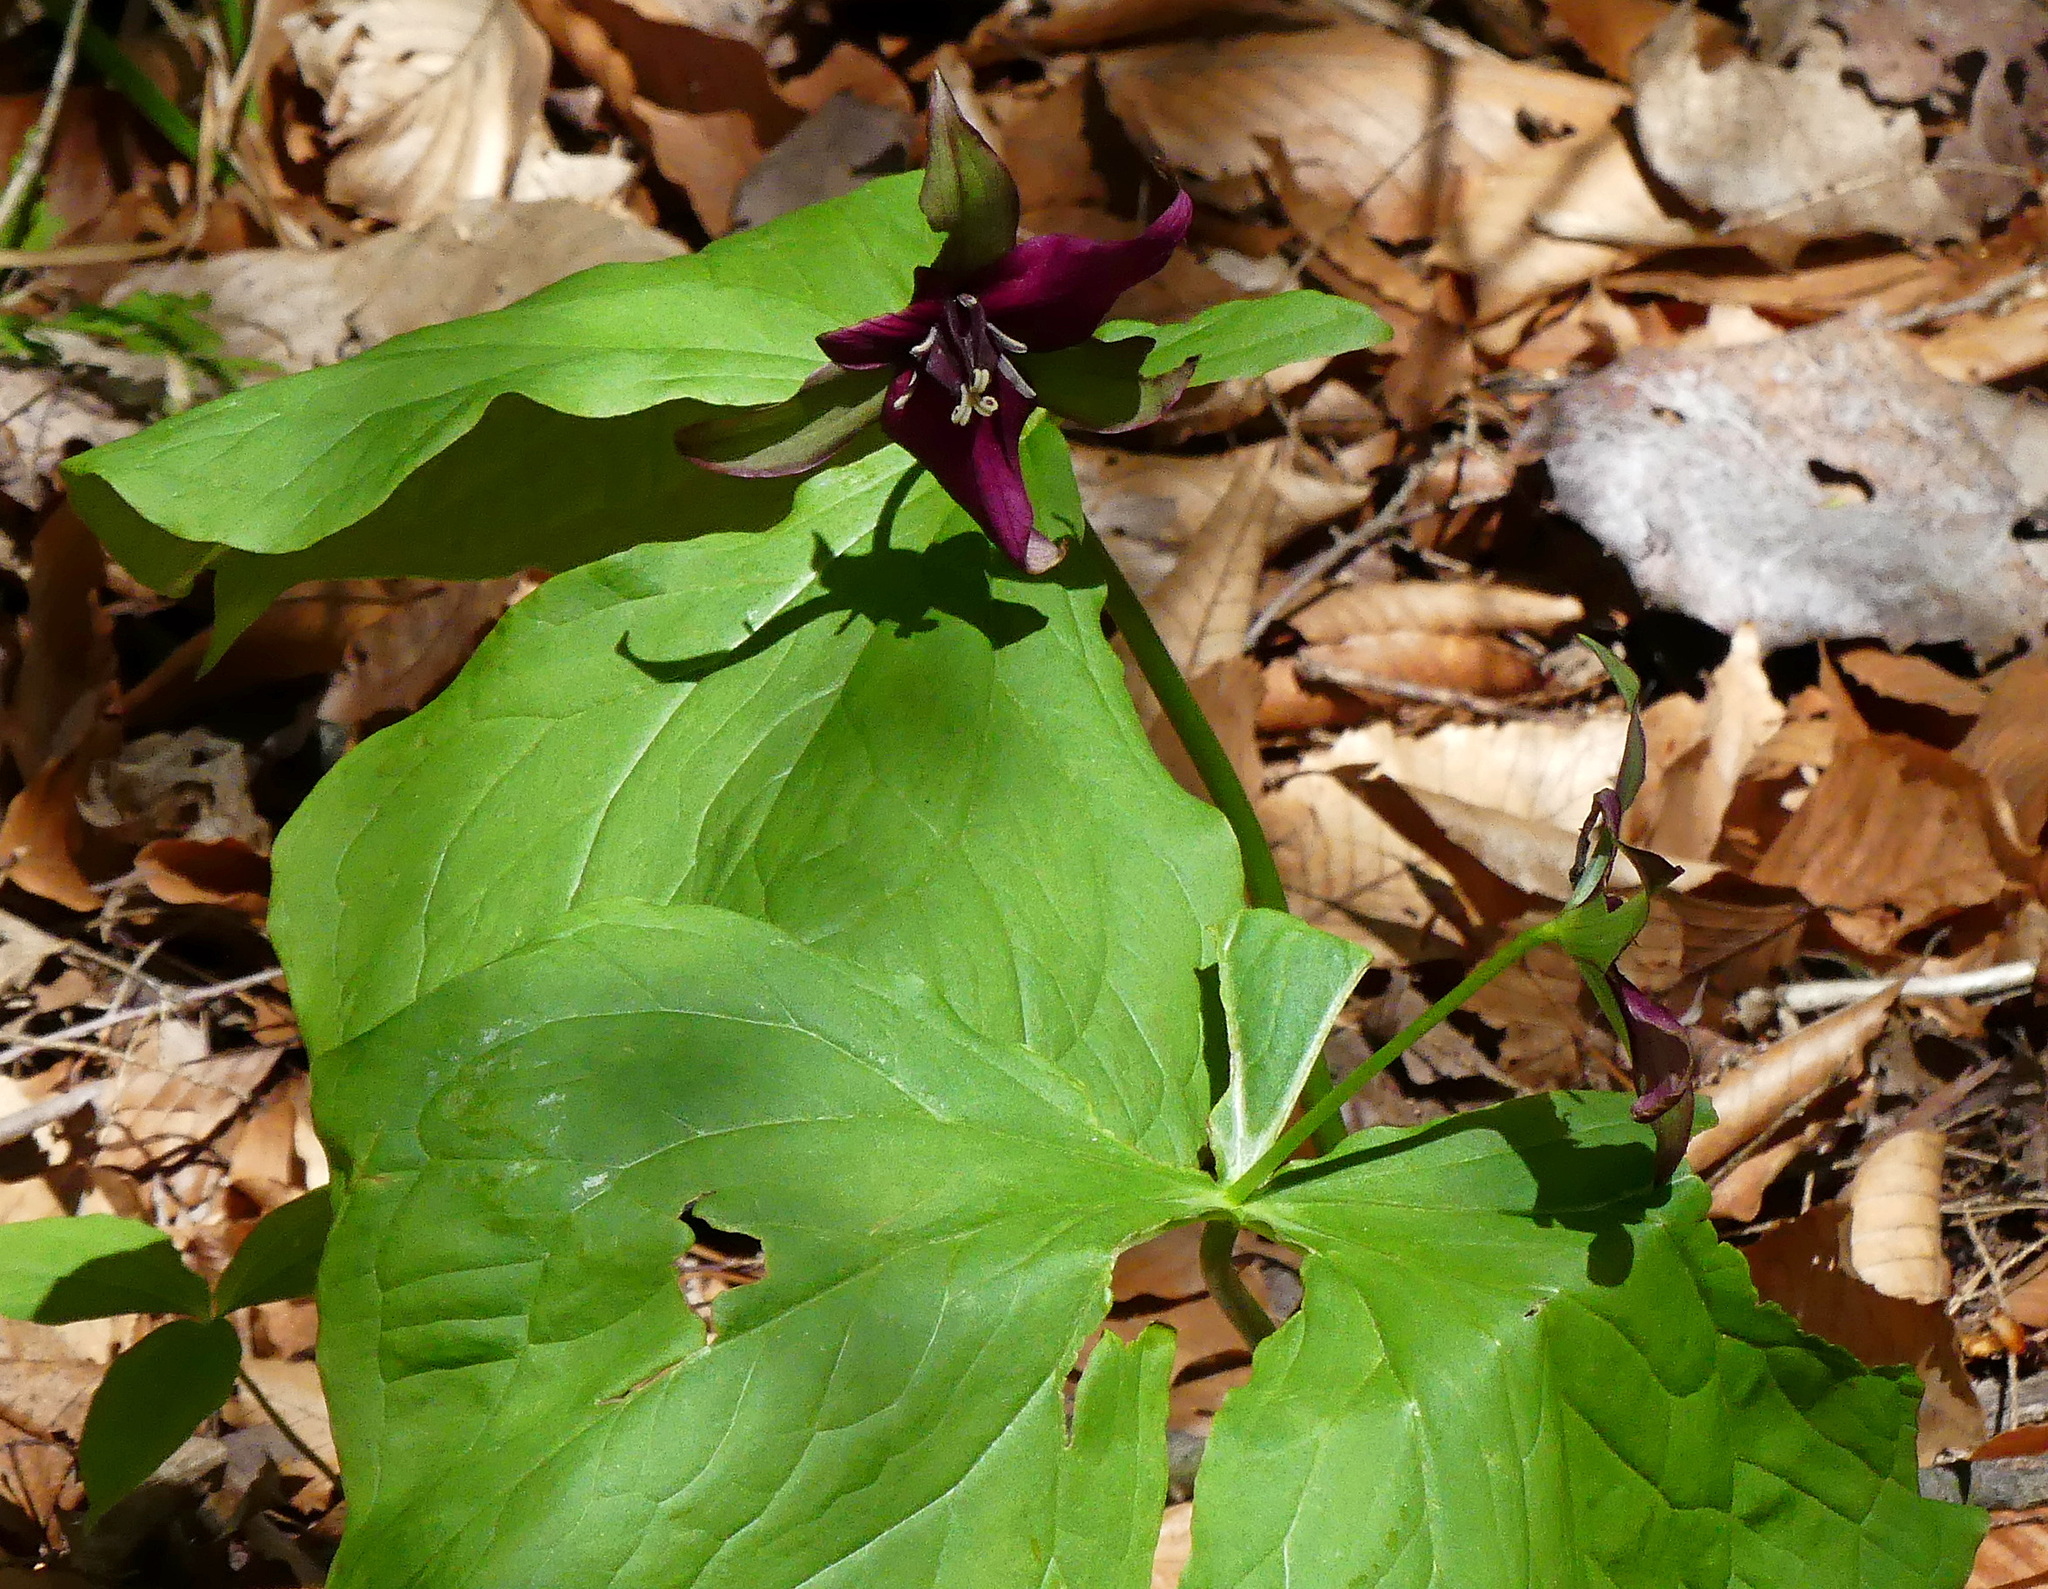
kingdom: Plantae
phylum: Tracheophyta
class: Liliopsida
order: Liliales
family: Melanthiaceae
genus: Trillium
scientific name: Trillium erectum
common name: Purple trillium
